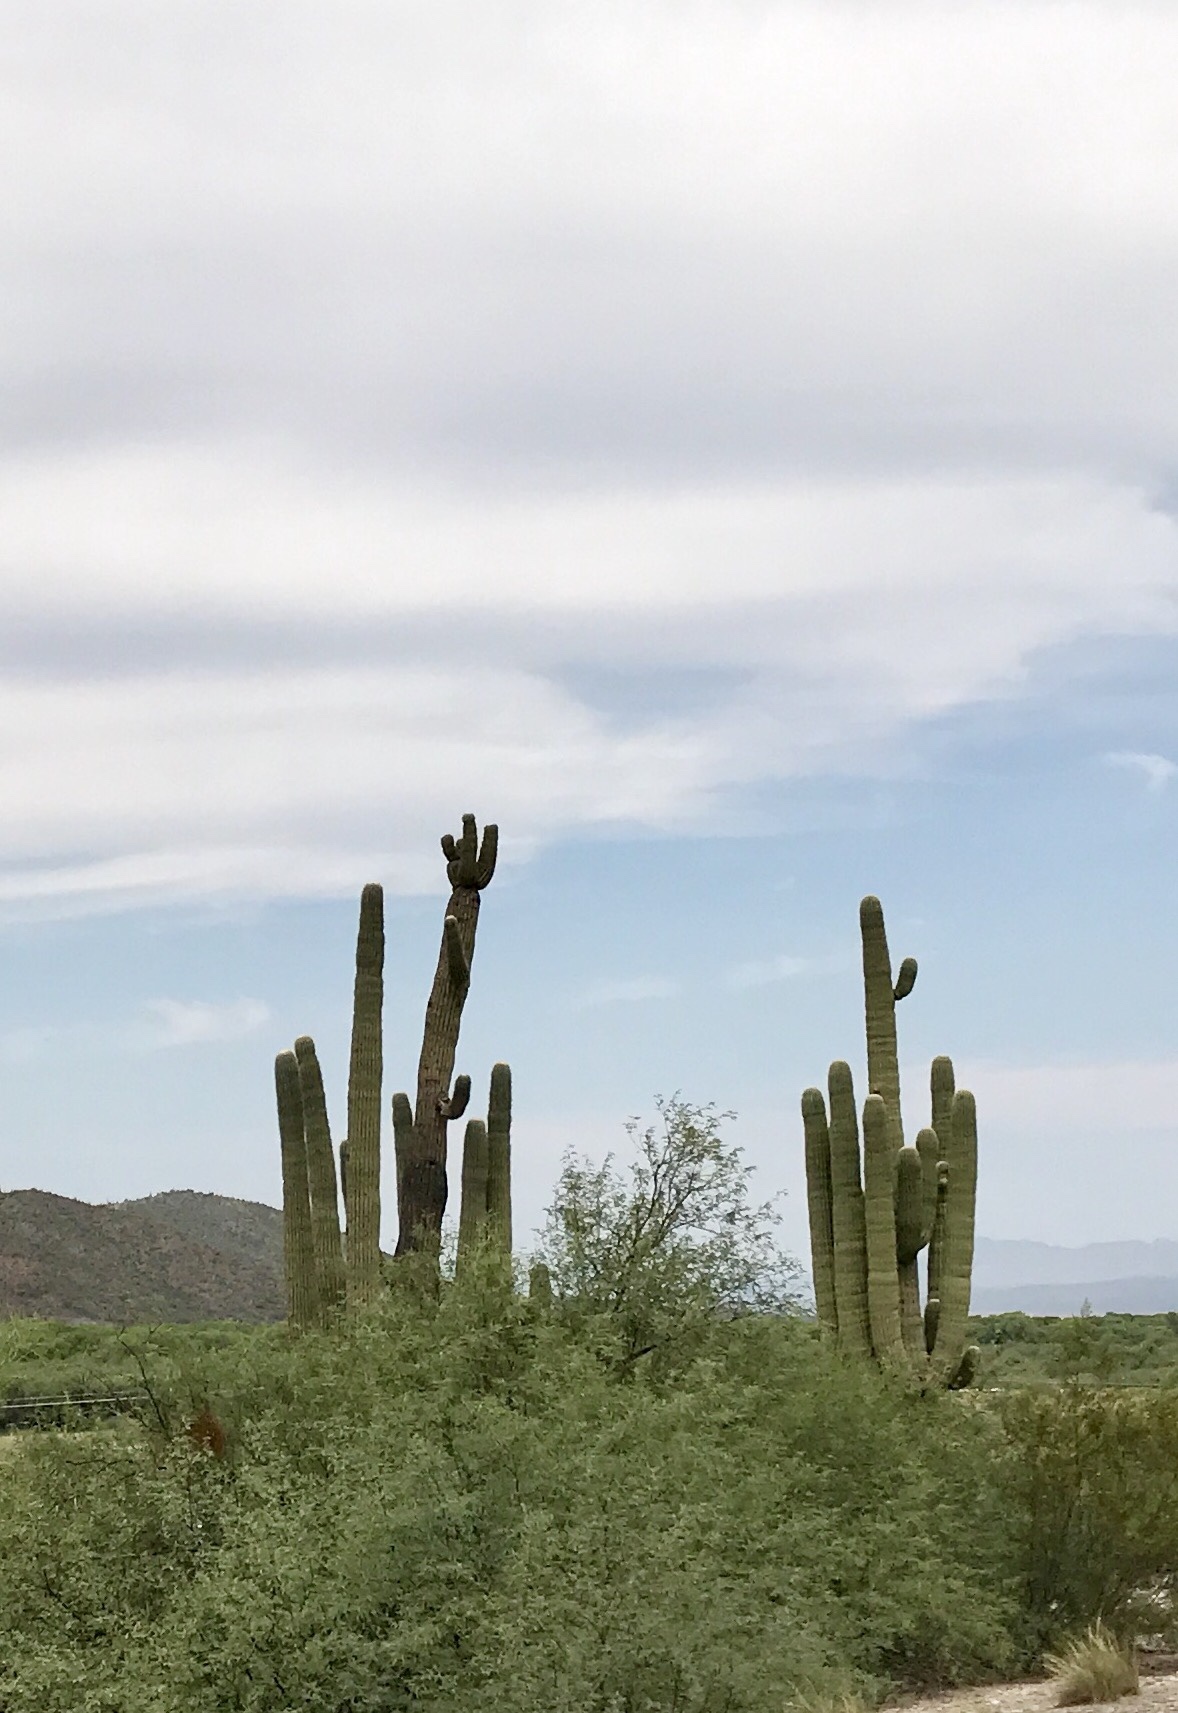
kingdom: Plantae
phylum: Tracheophyta
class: Magnoliopsida
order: Caryophyllales
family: Cactaceae
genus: Carnegiea
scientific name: Carnegiea gigantea
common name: Saguaro
